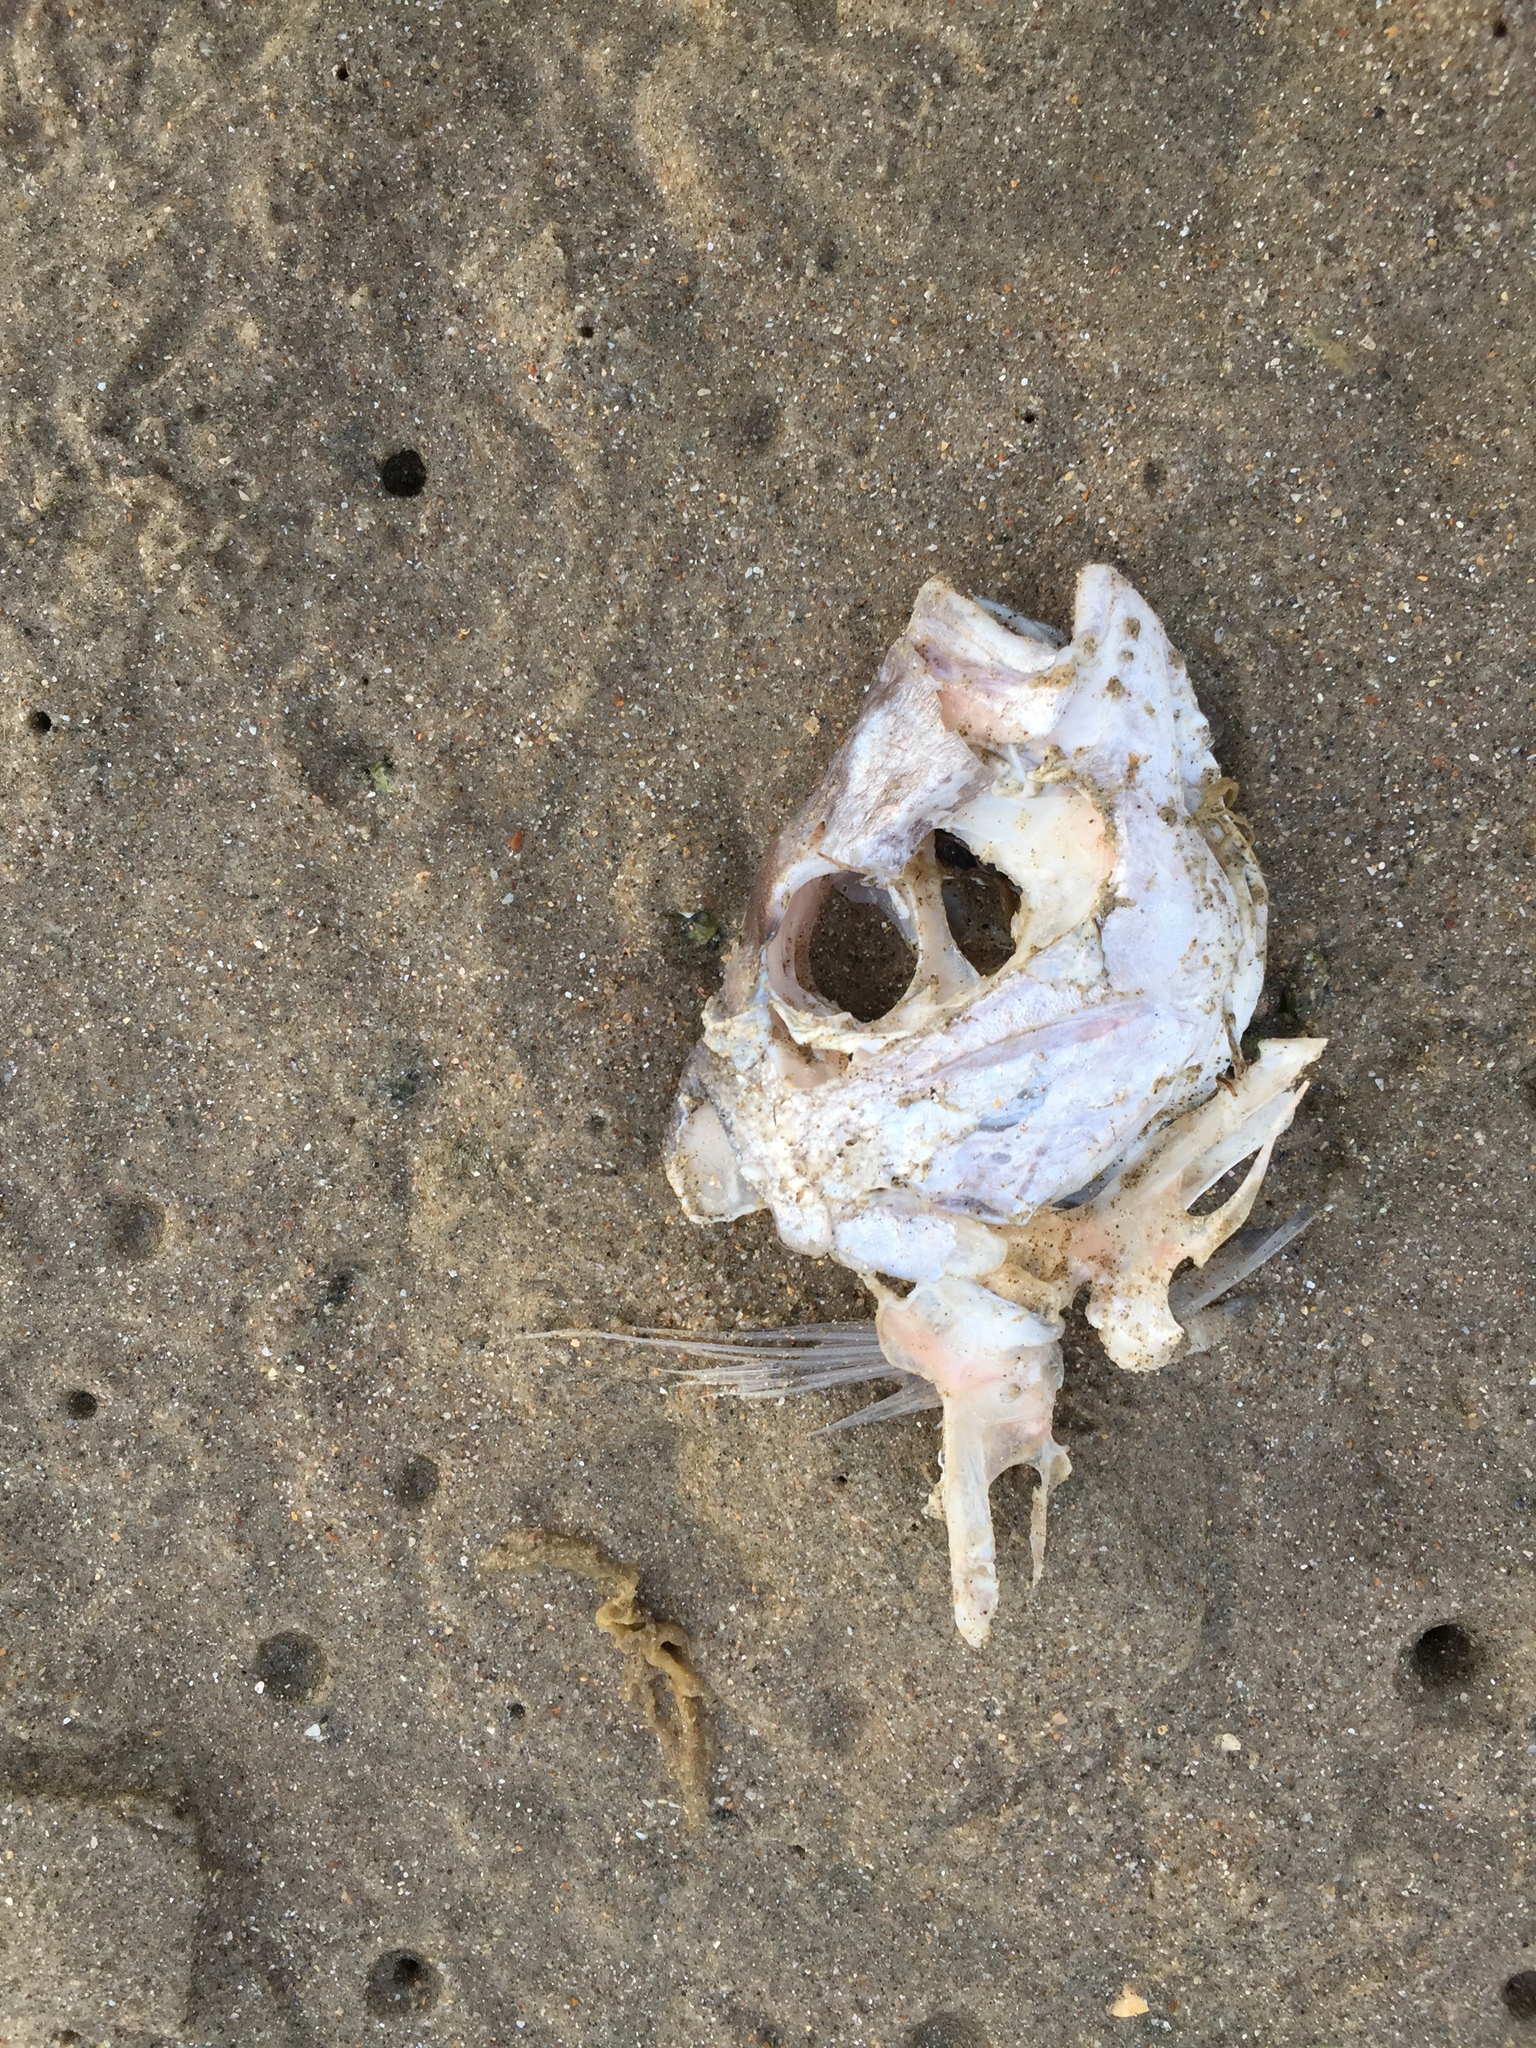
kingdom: Animalia
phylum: Chordata
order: Perciformes
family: Sparidae
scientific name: Sparidae
